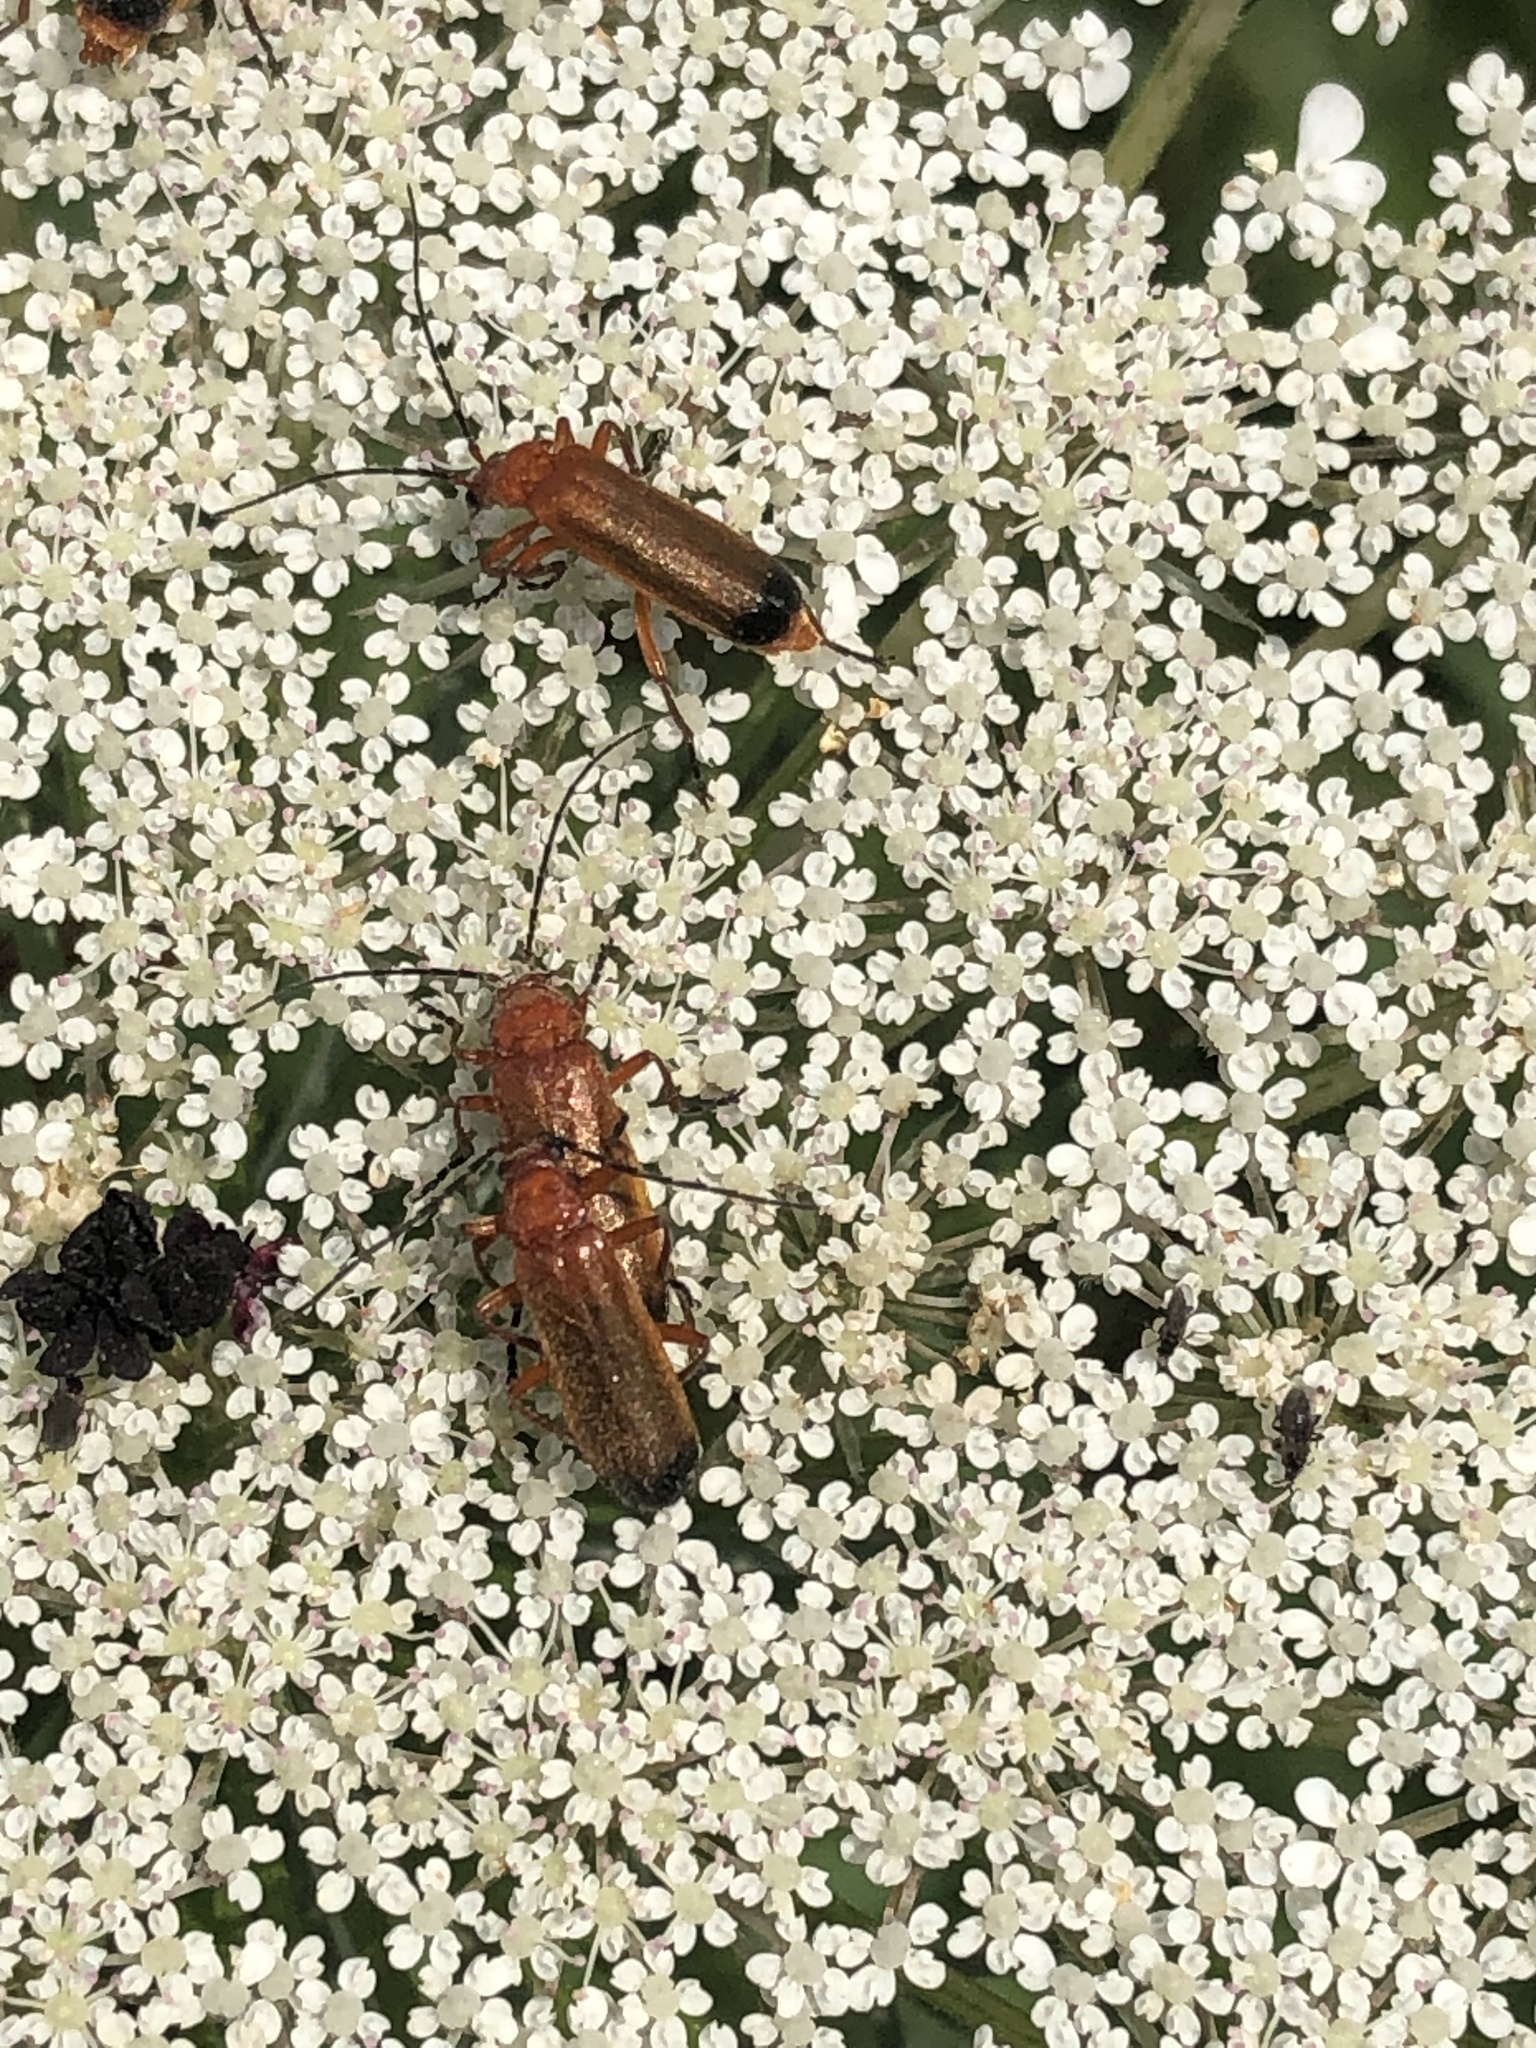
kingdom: Animalia
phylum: Arthropoda
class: Insecta
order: Coleoptera
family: Cantharidae
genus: Rhagonycha
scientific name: Rhagonycha fulva
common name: Common red soldier beetle
